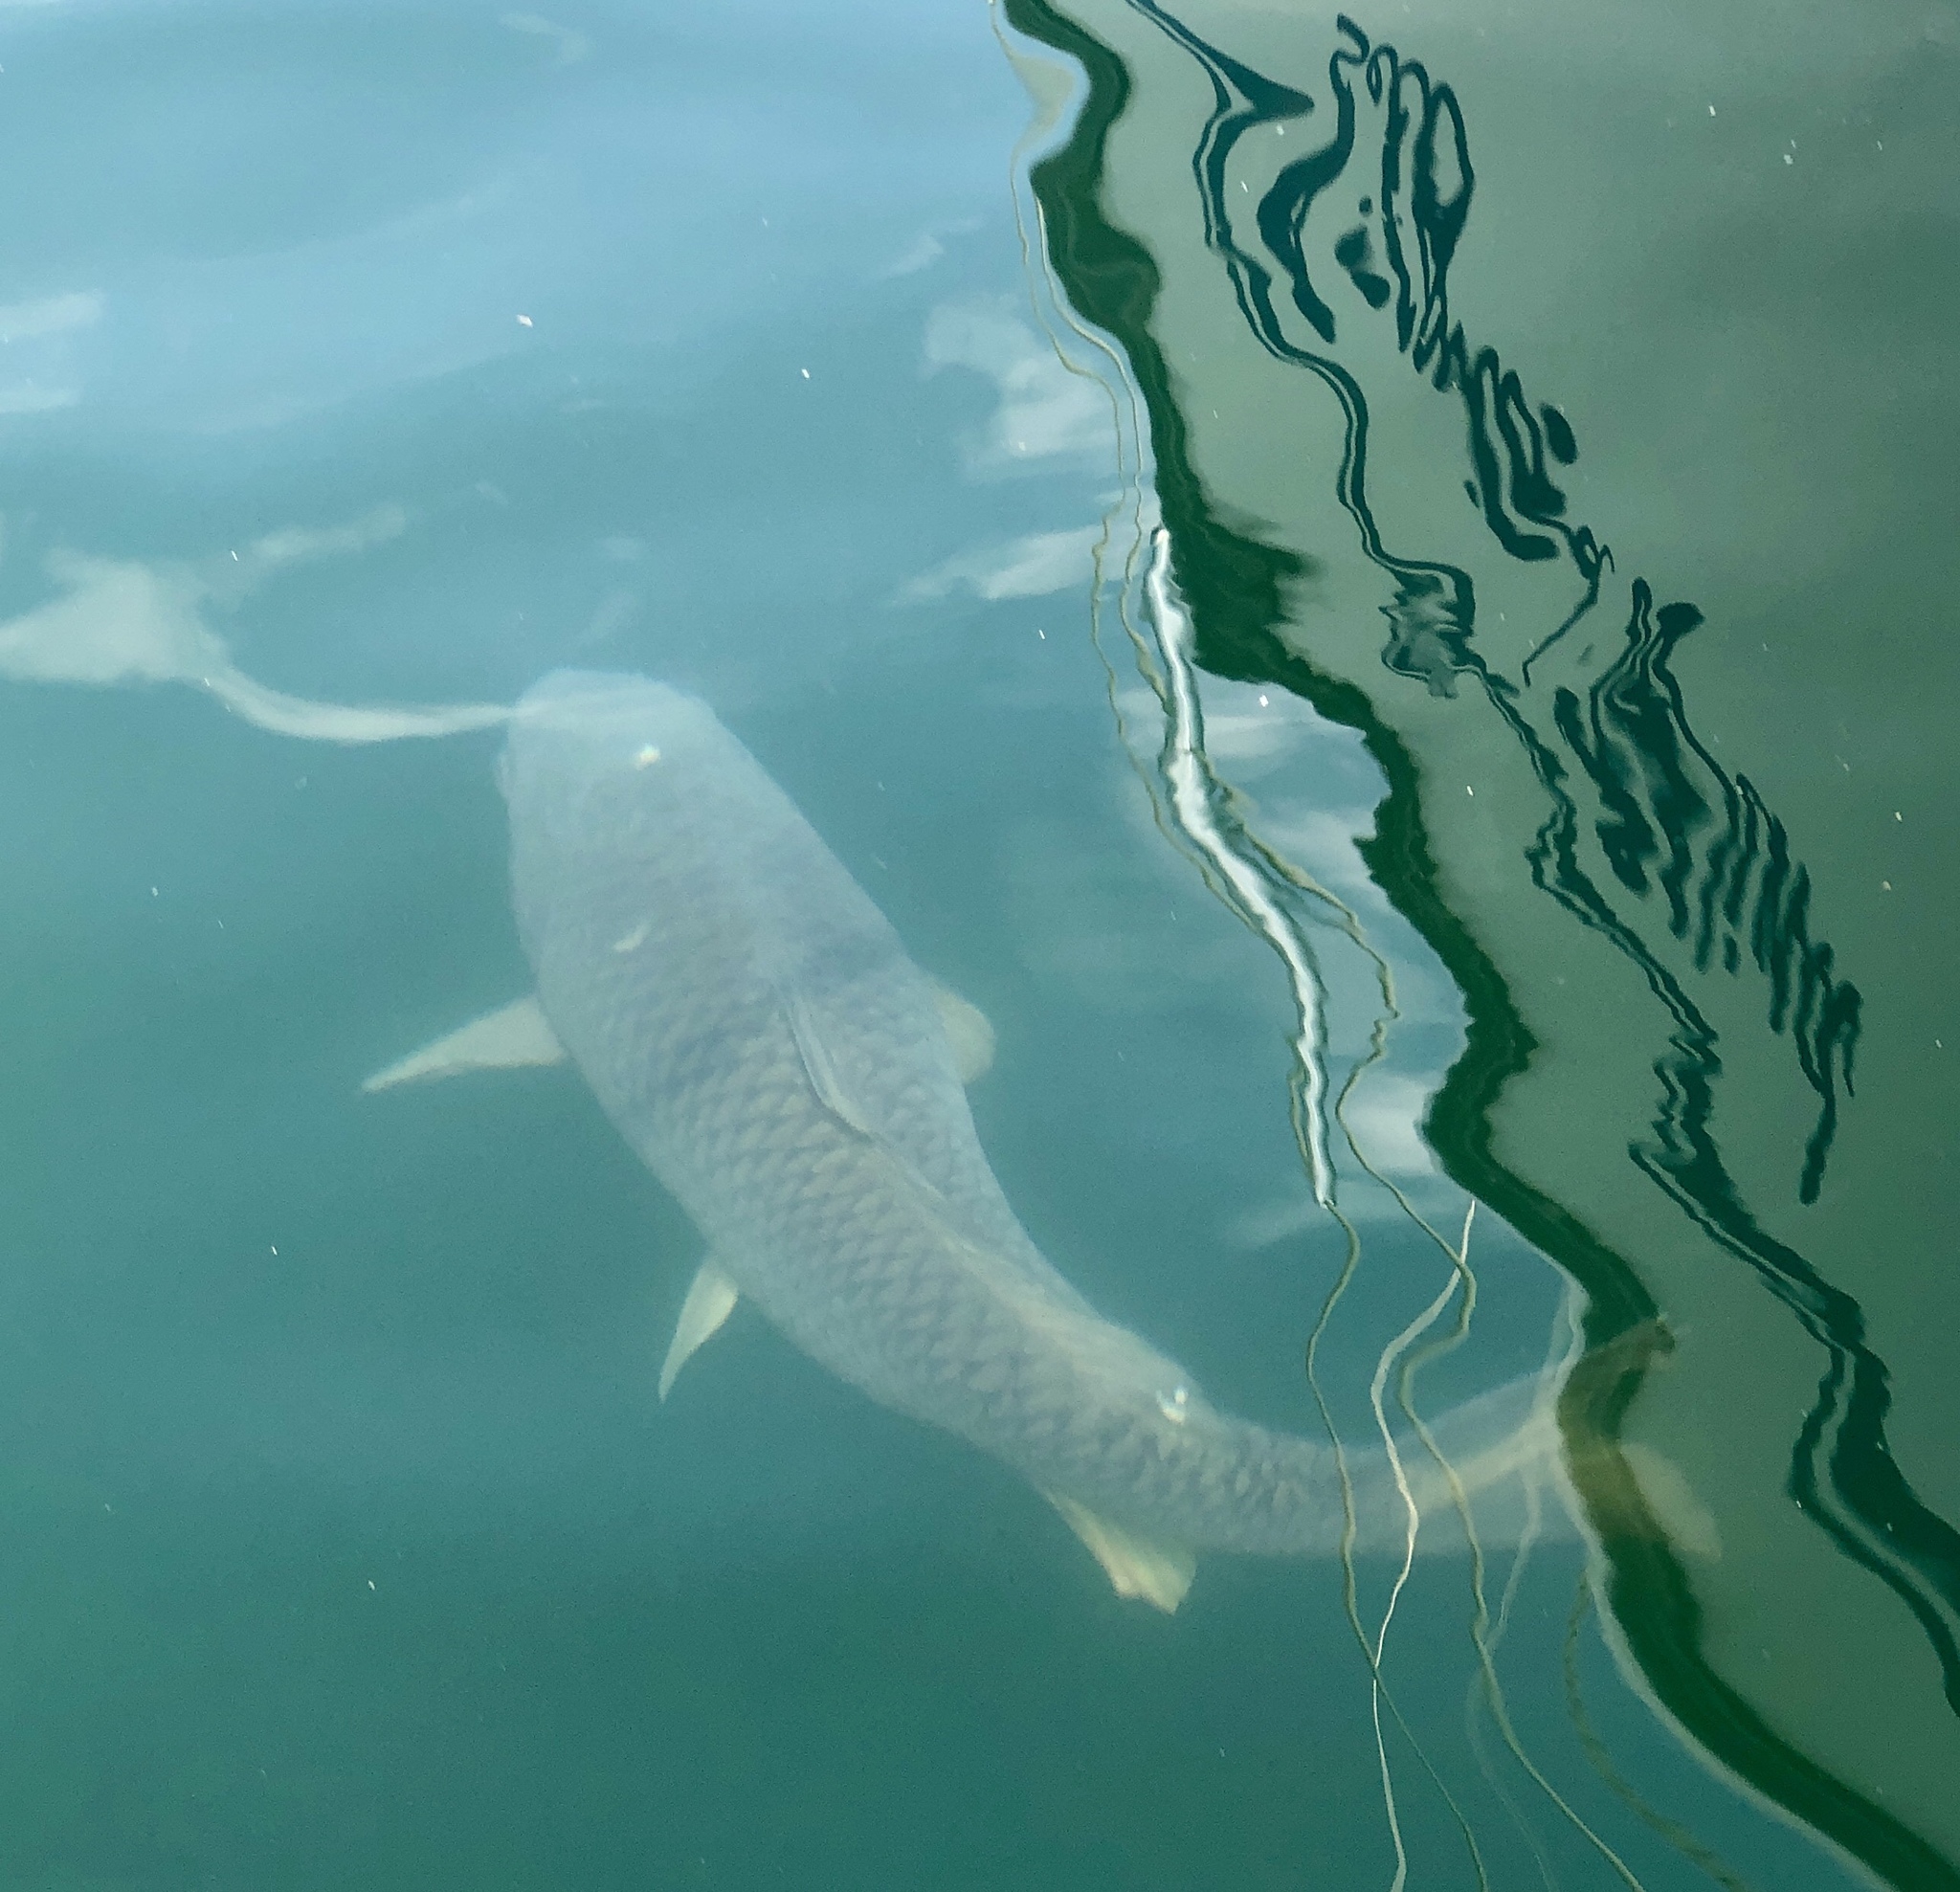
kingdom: Animalia
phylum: Chordata
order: Cypriniformes
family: Cyprinidae
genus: Cyprinus
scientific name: Cyprinus carpio
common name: Common carp
